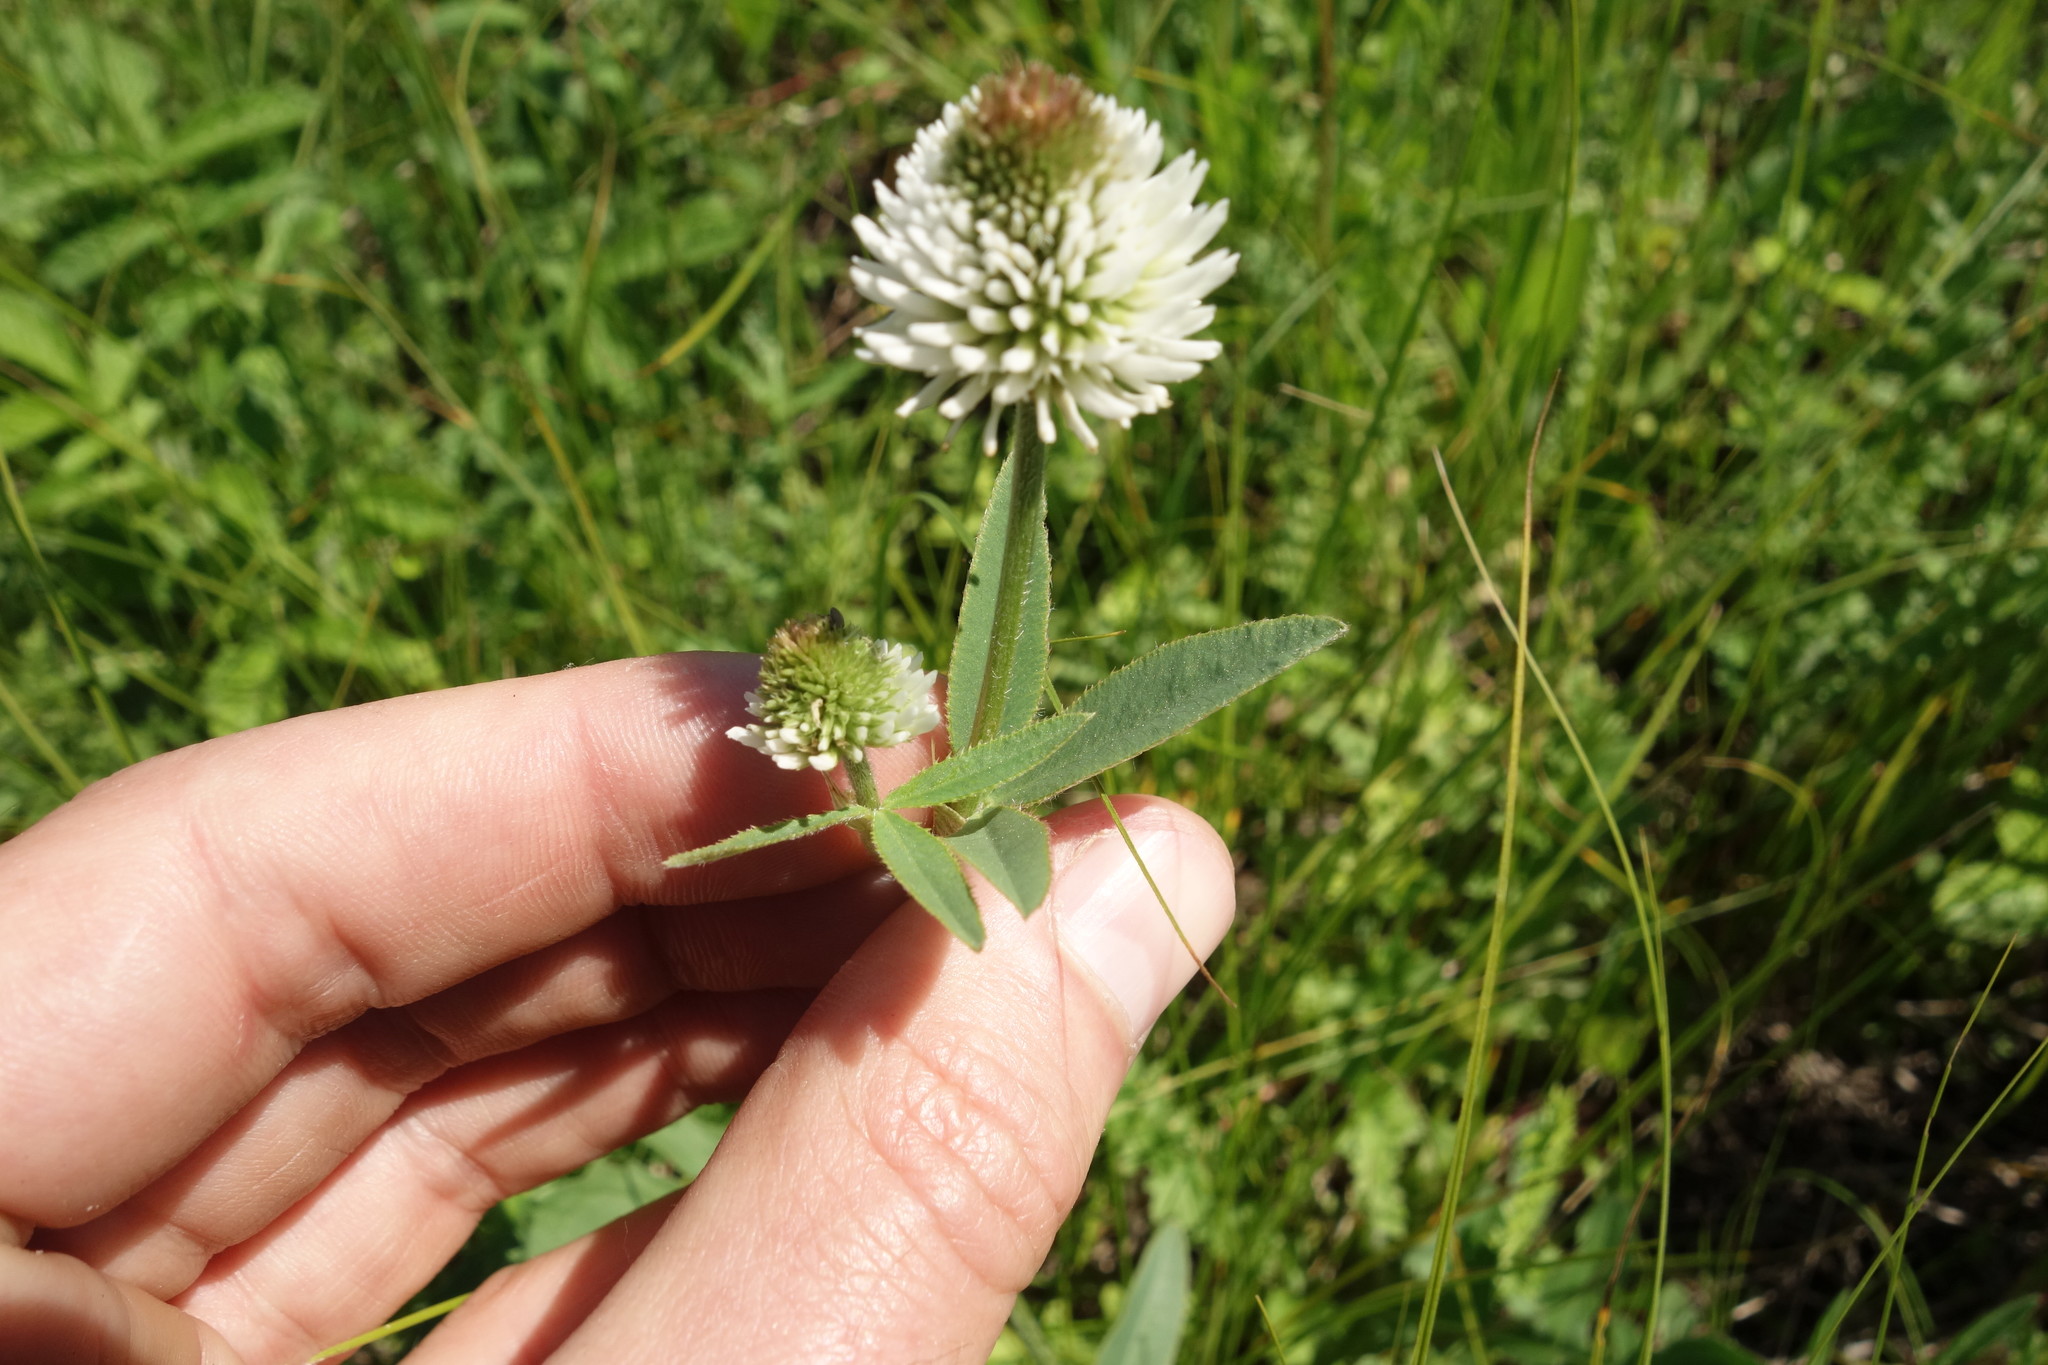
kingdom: Plantae
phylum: Tracheophyta
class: Magnoliopsida
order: Fabales
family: Fabaceae
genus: Trifolium
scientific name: Trifolium montanum
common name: Mountain clover
